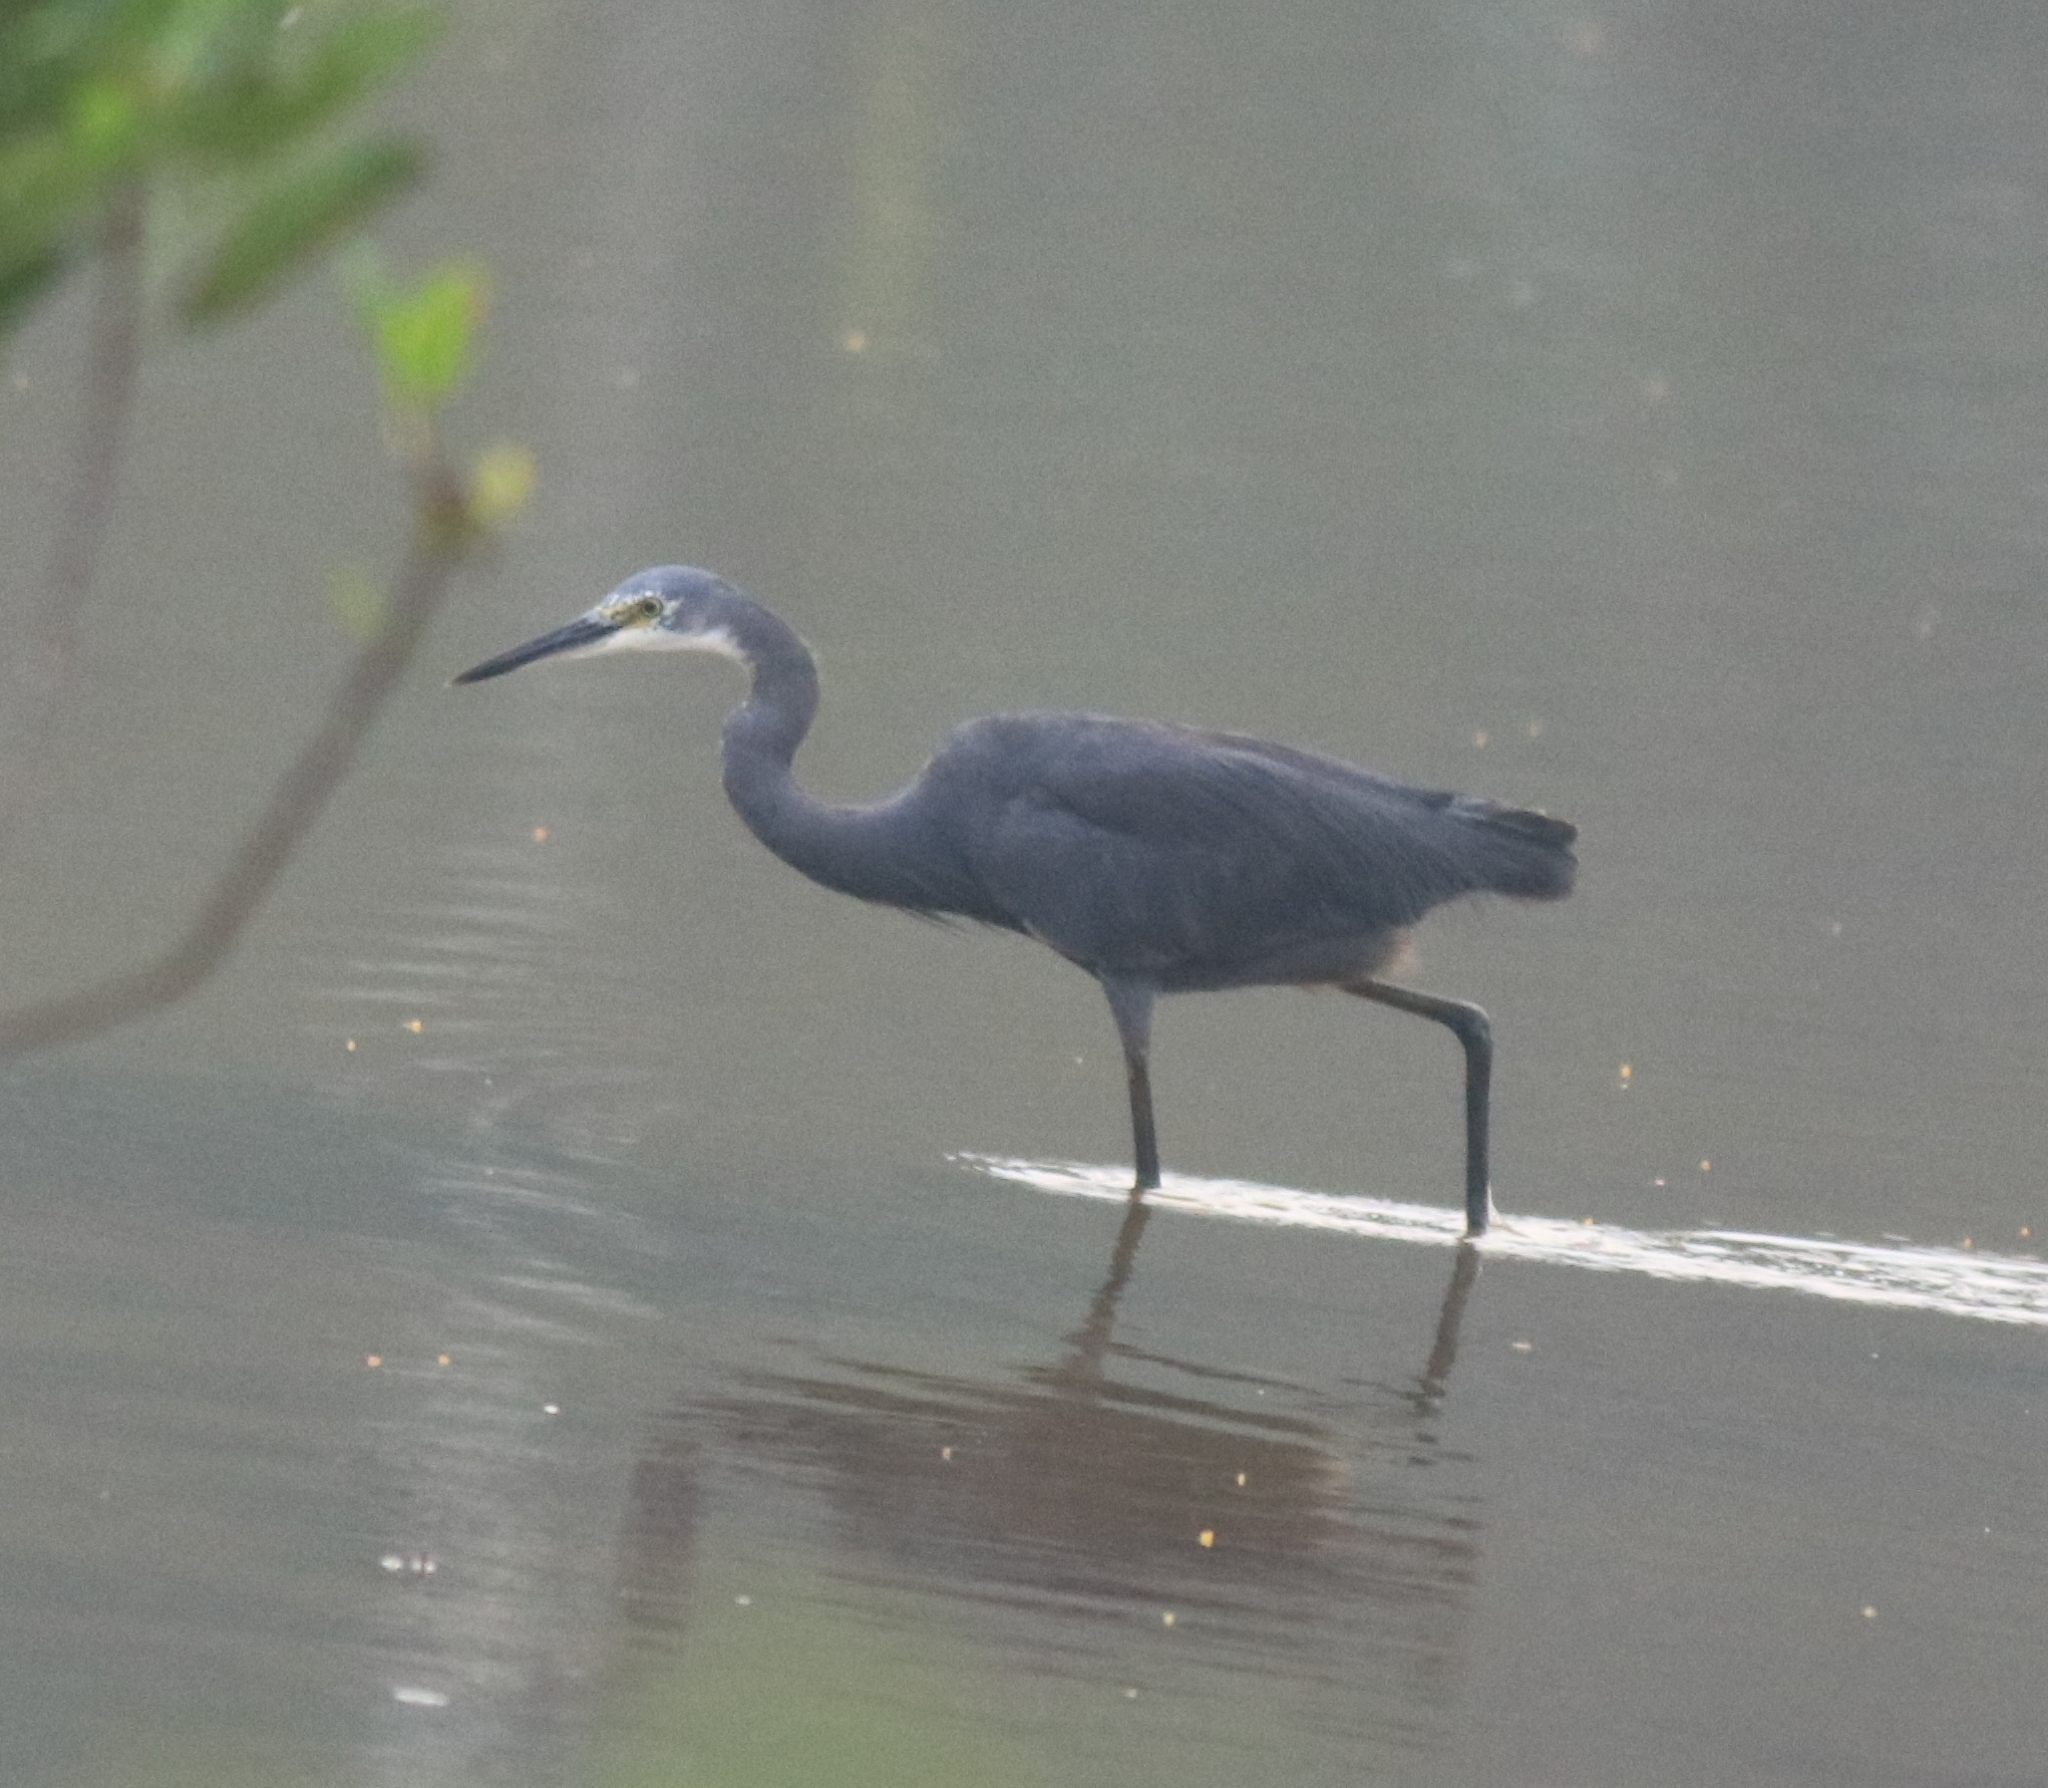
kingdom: Animalia
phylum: Chordata
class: Aves
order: Pelecaniformes
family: Ardeidae
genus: Egretta
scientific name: Egretta garzetta
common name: Little egret
